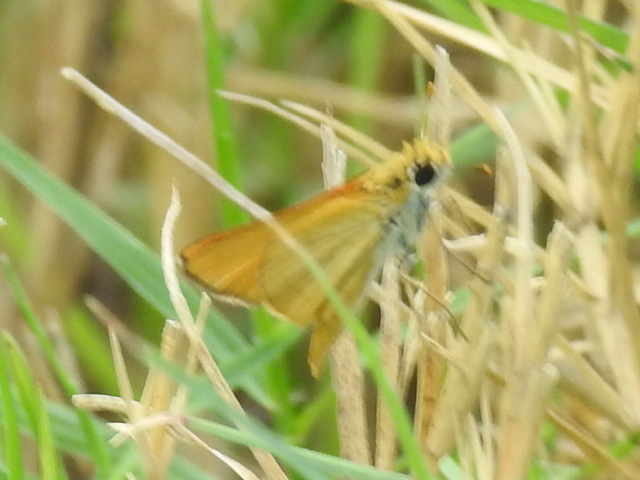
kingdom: Animalia
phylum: Arthropoda
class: Insecta
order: Lepidoptera
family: Hesperiidae
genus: Copaeodes
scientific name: Copaeodes aurantiaca
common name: Orange skipperling
